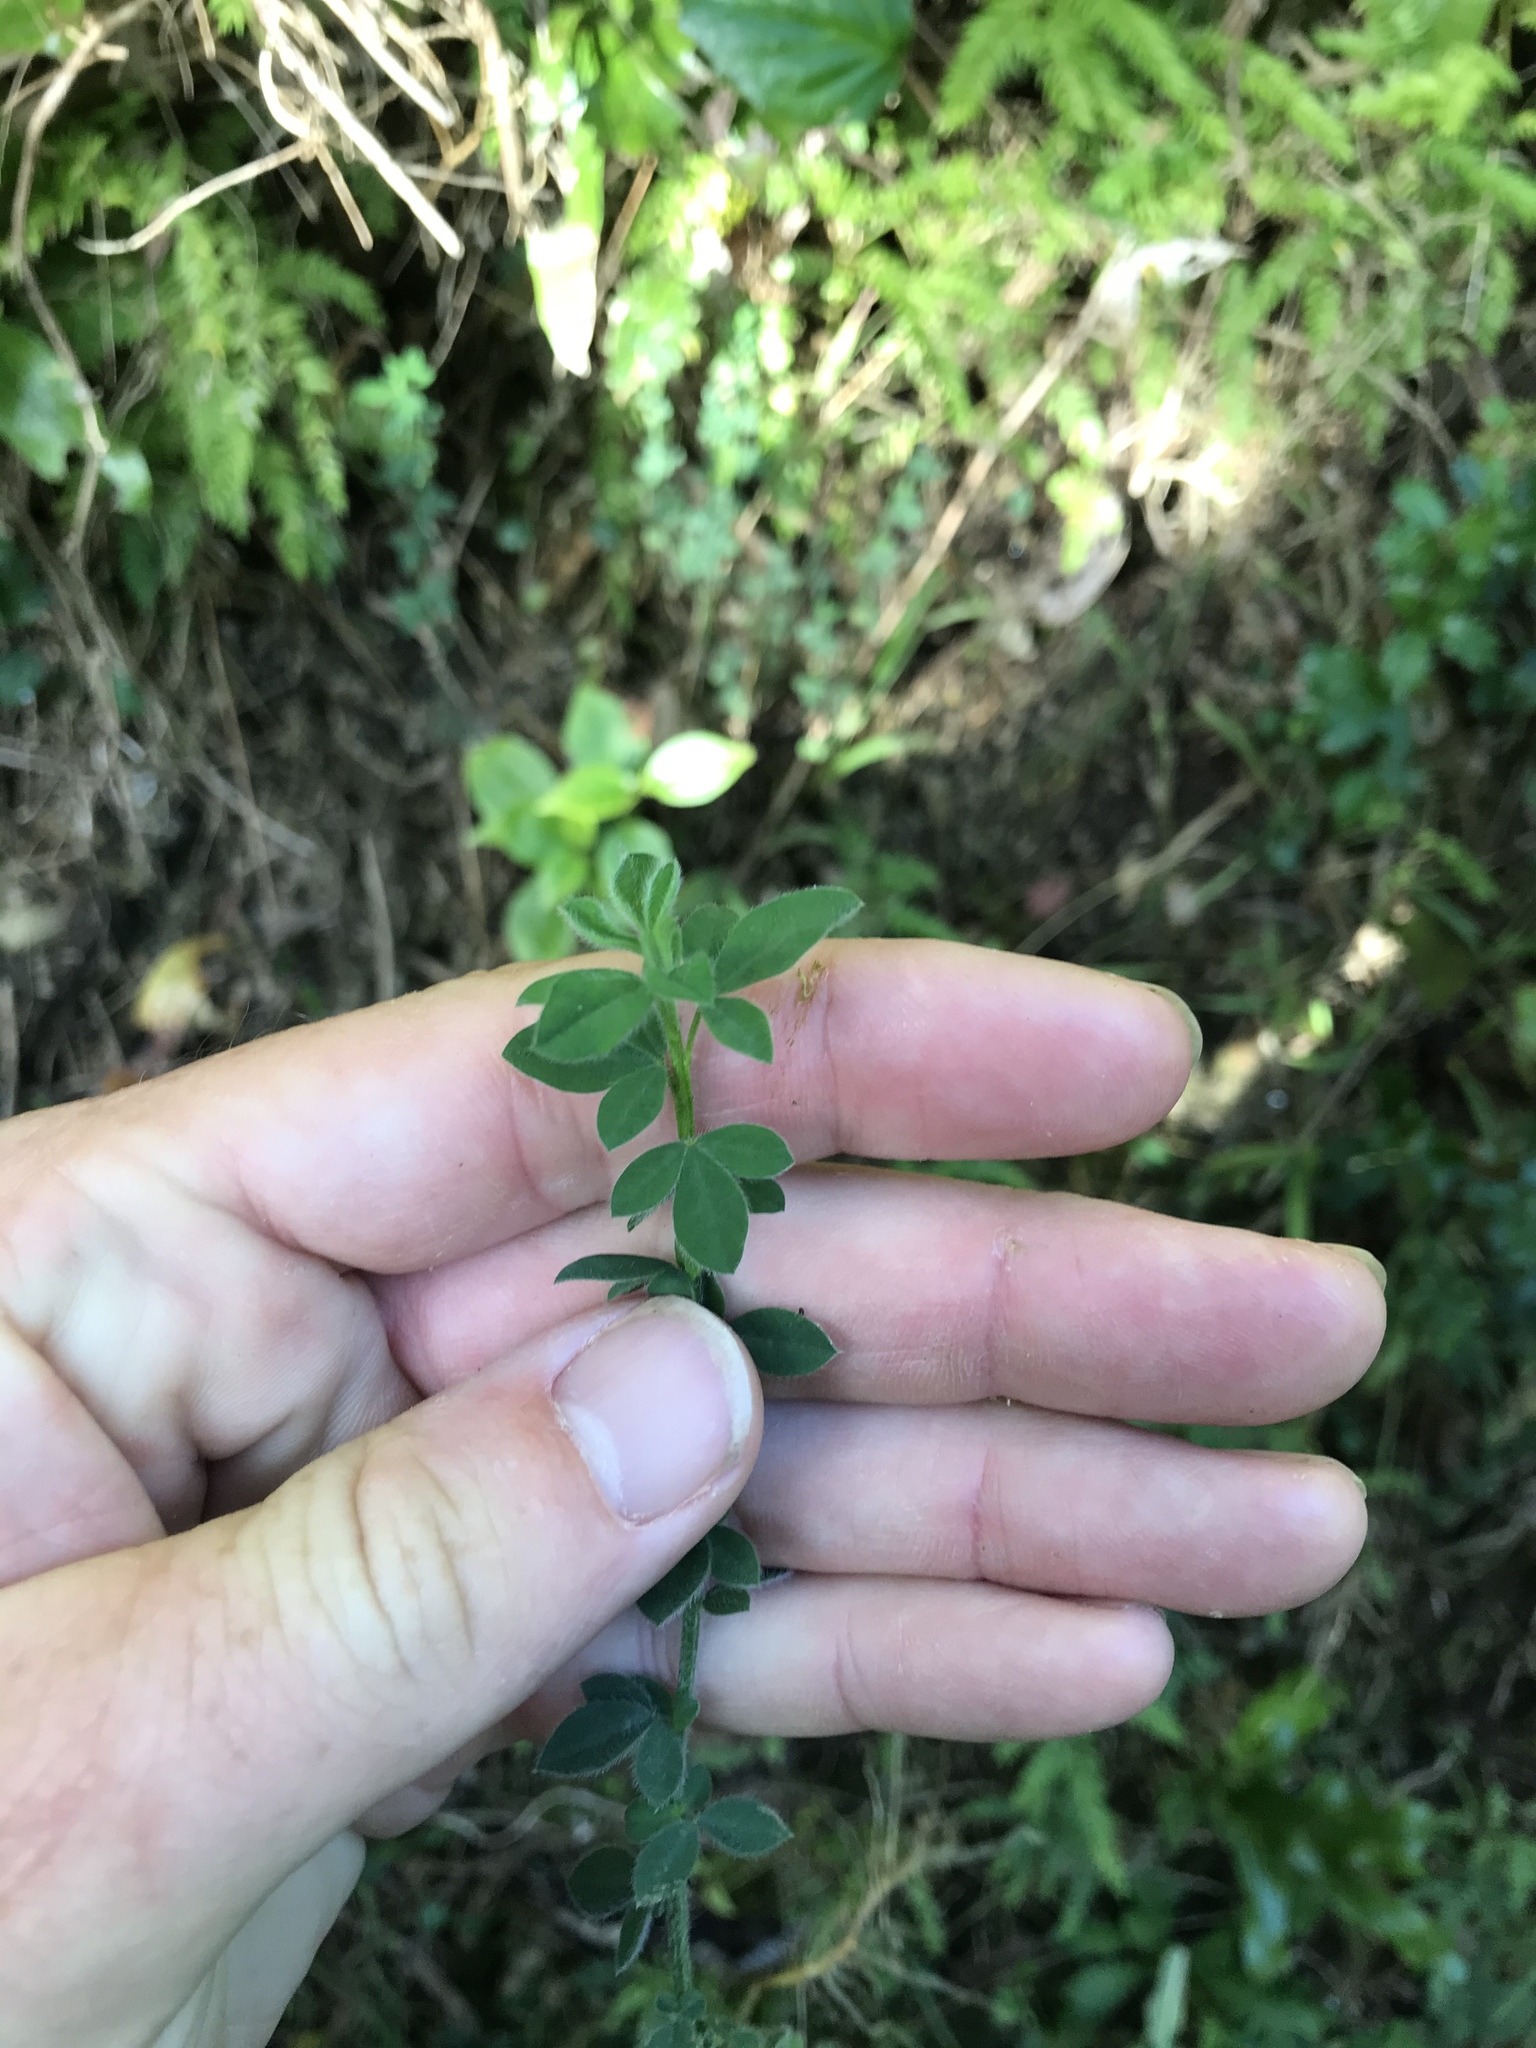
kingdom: Plantae
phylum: Tracheophyta
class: Magnoliopsida
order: Fabales
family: Fabaceae
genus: Cytisus
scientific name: Cytisus scoparius
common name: Scotch broom
